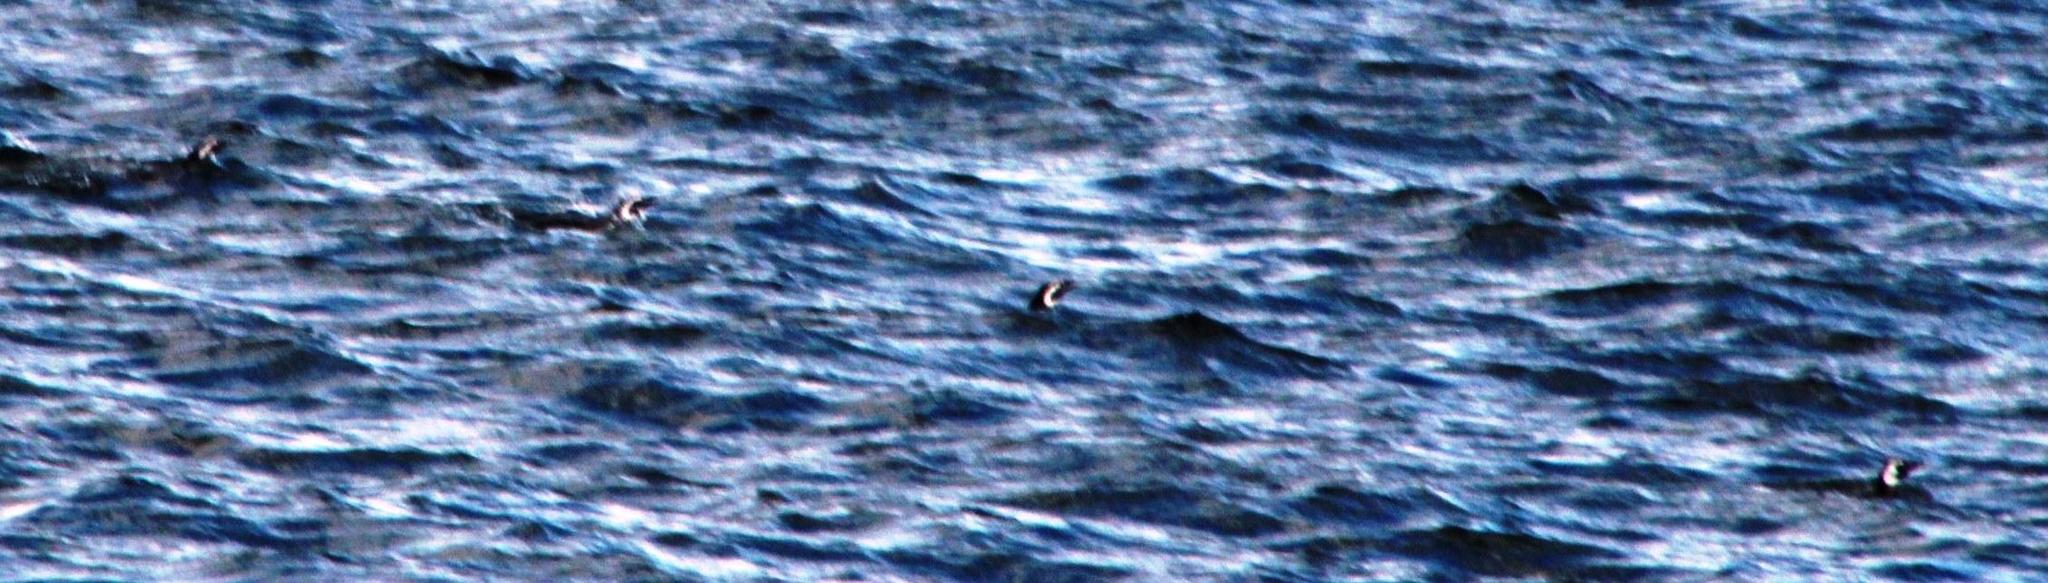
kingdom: Animalia
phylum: Chordata
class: Aves
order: Sphenisciformes
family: Spheniscidae
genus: Spheniscus
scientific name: Spheniscus magellanicus
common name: Magellanic penguin
